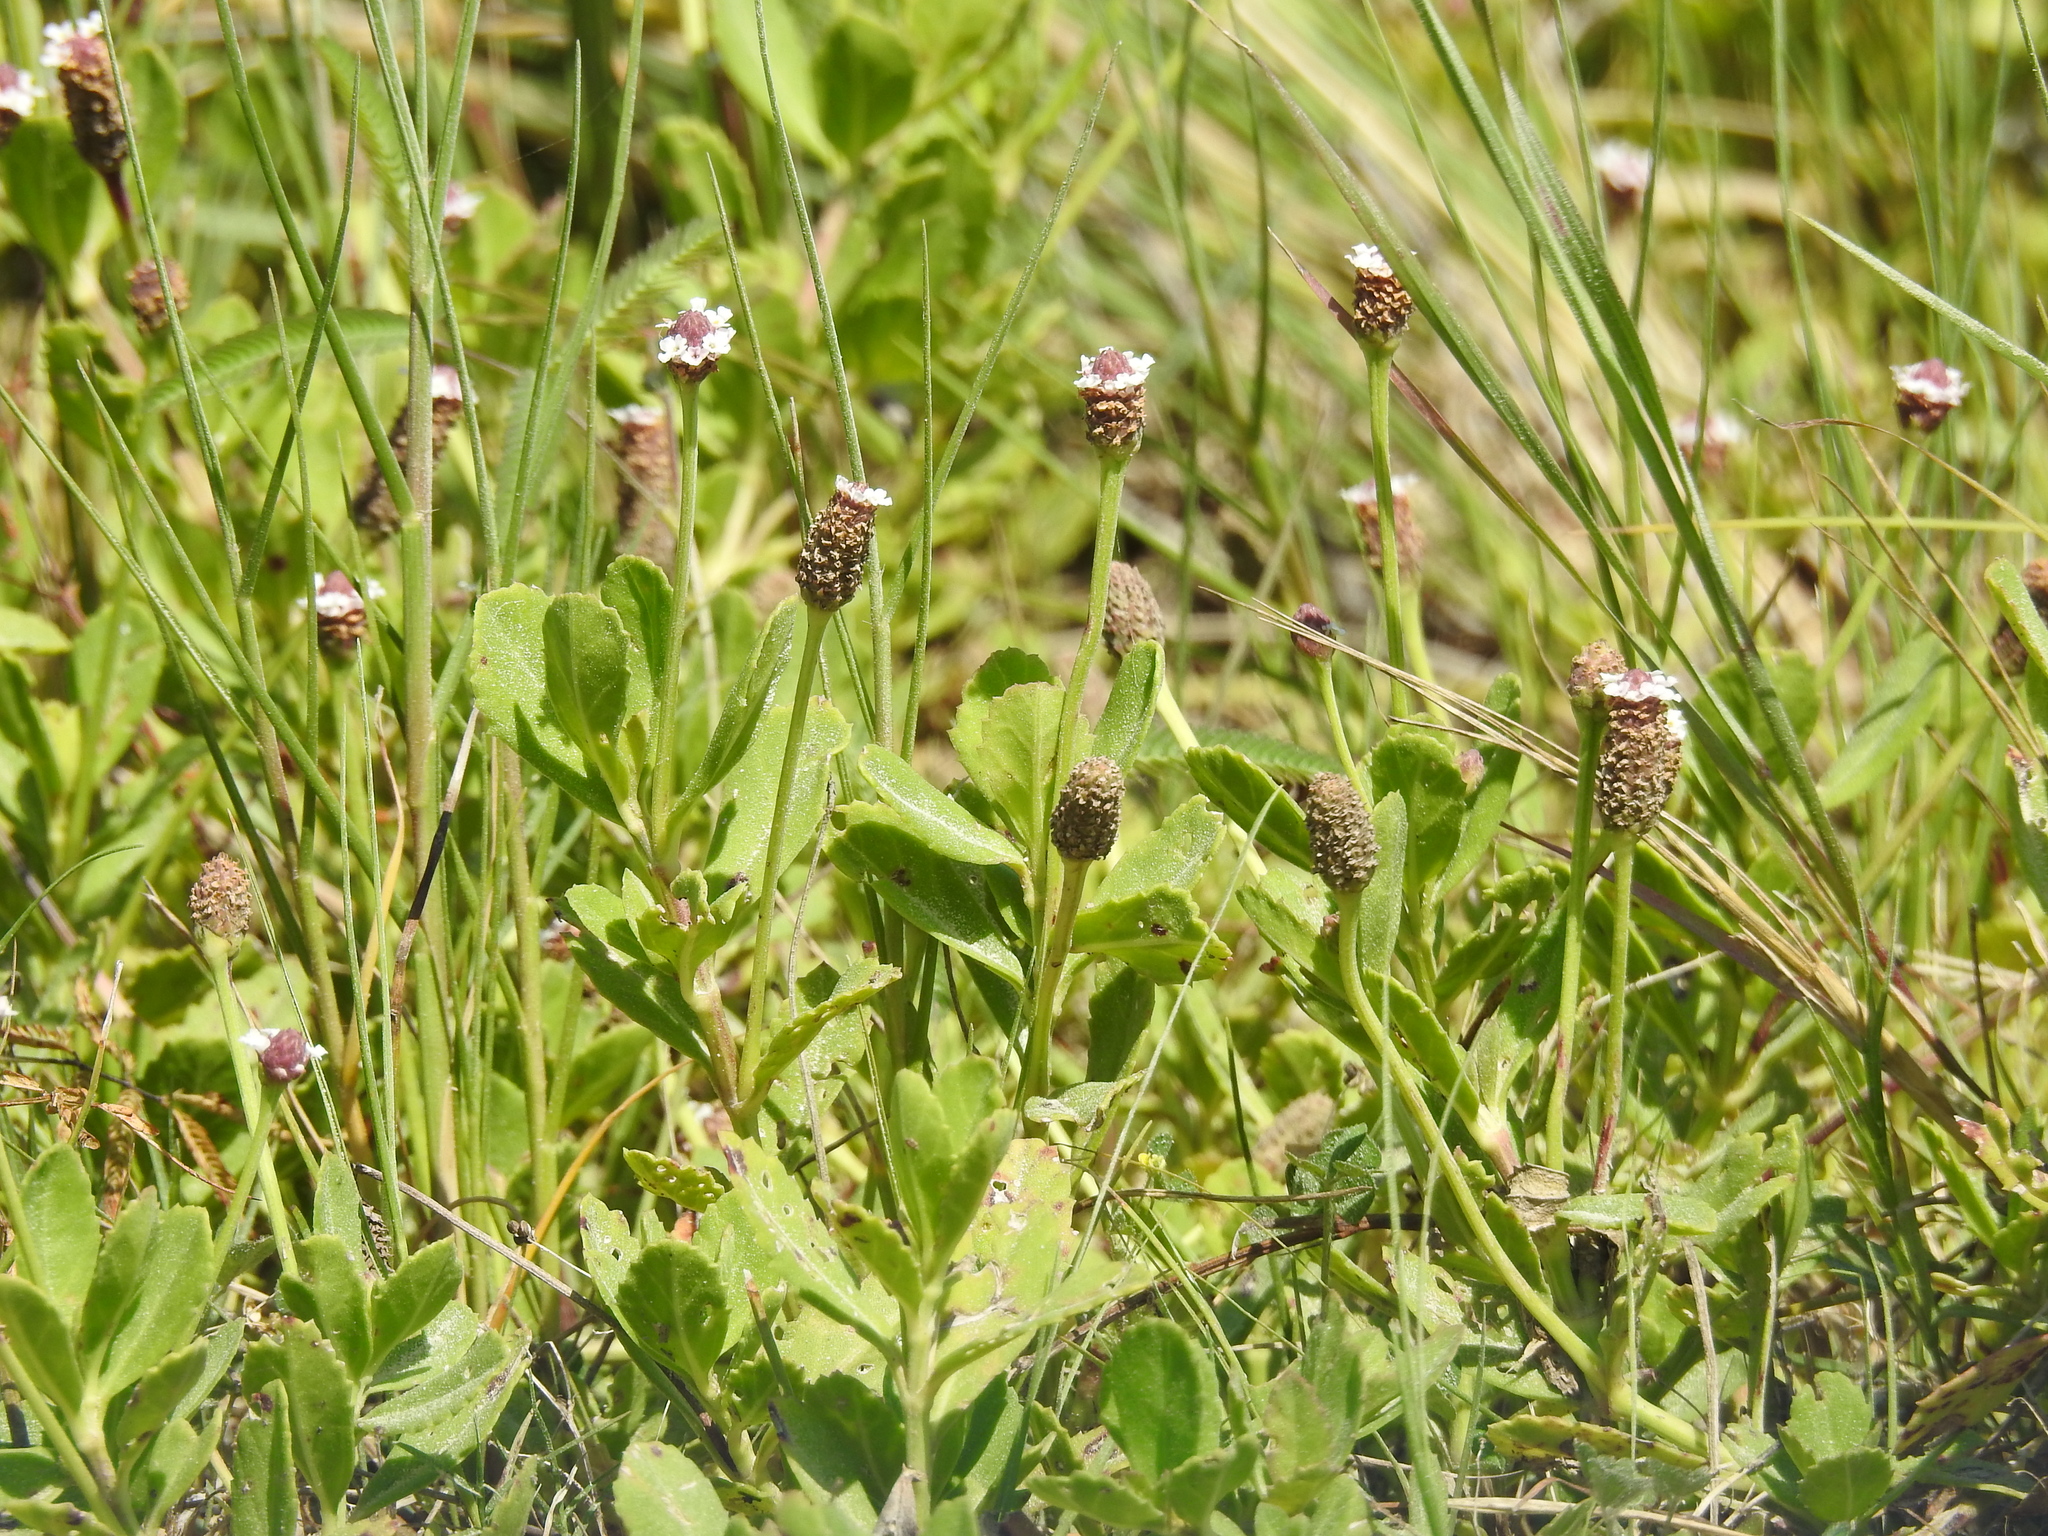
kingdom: Plantae
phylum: Tracheophyta
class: Magnoliopsida
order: Lamiales
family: Verbenaceae
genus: Phyla
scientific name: Phyla nodiflora
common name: Frogfruit
